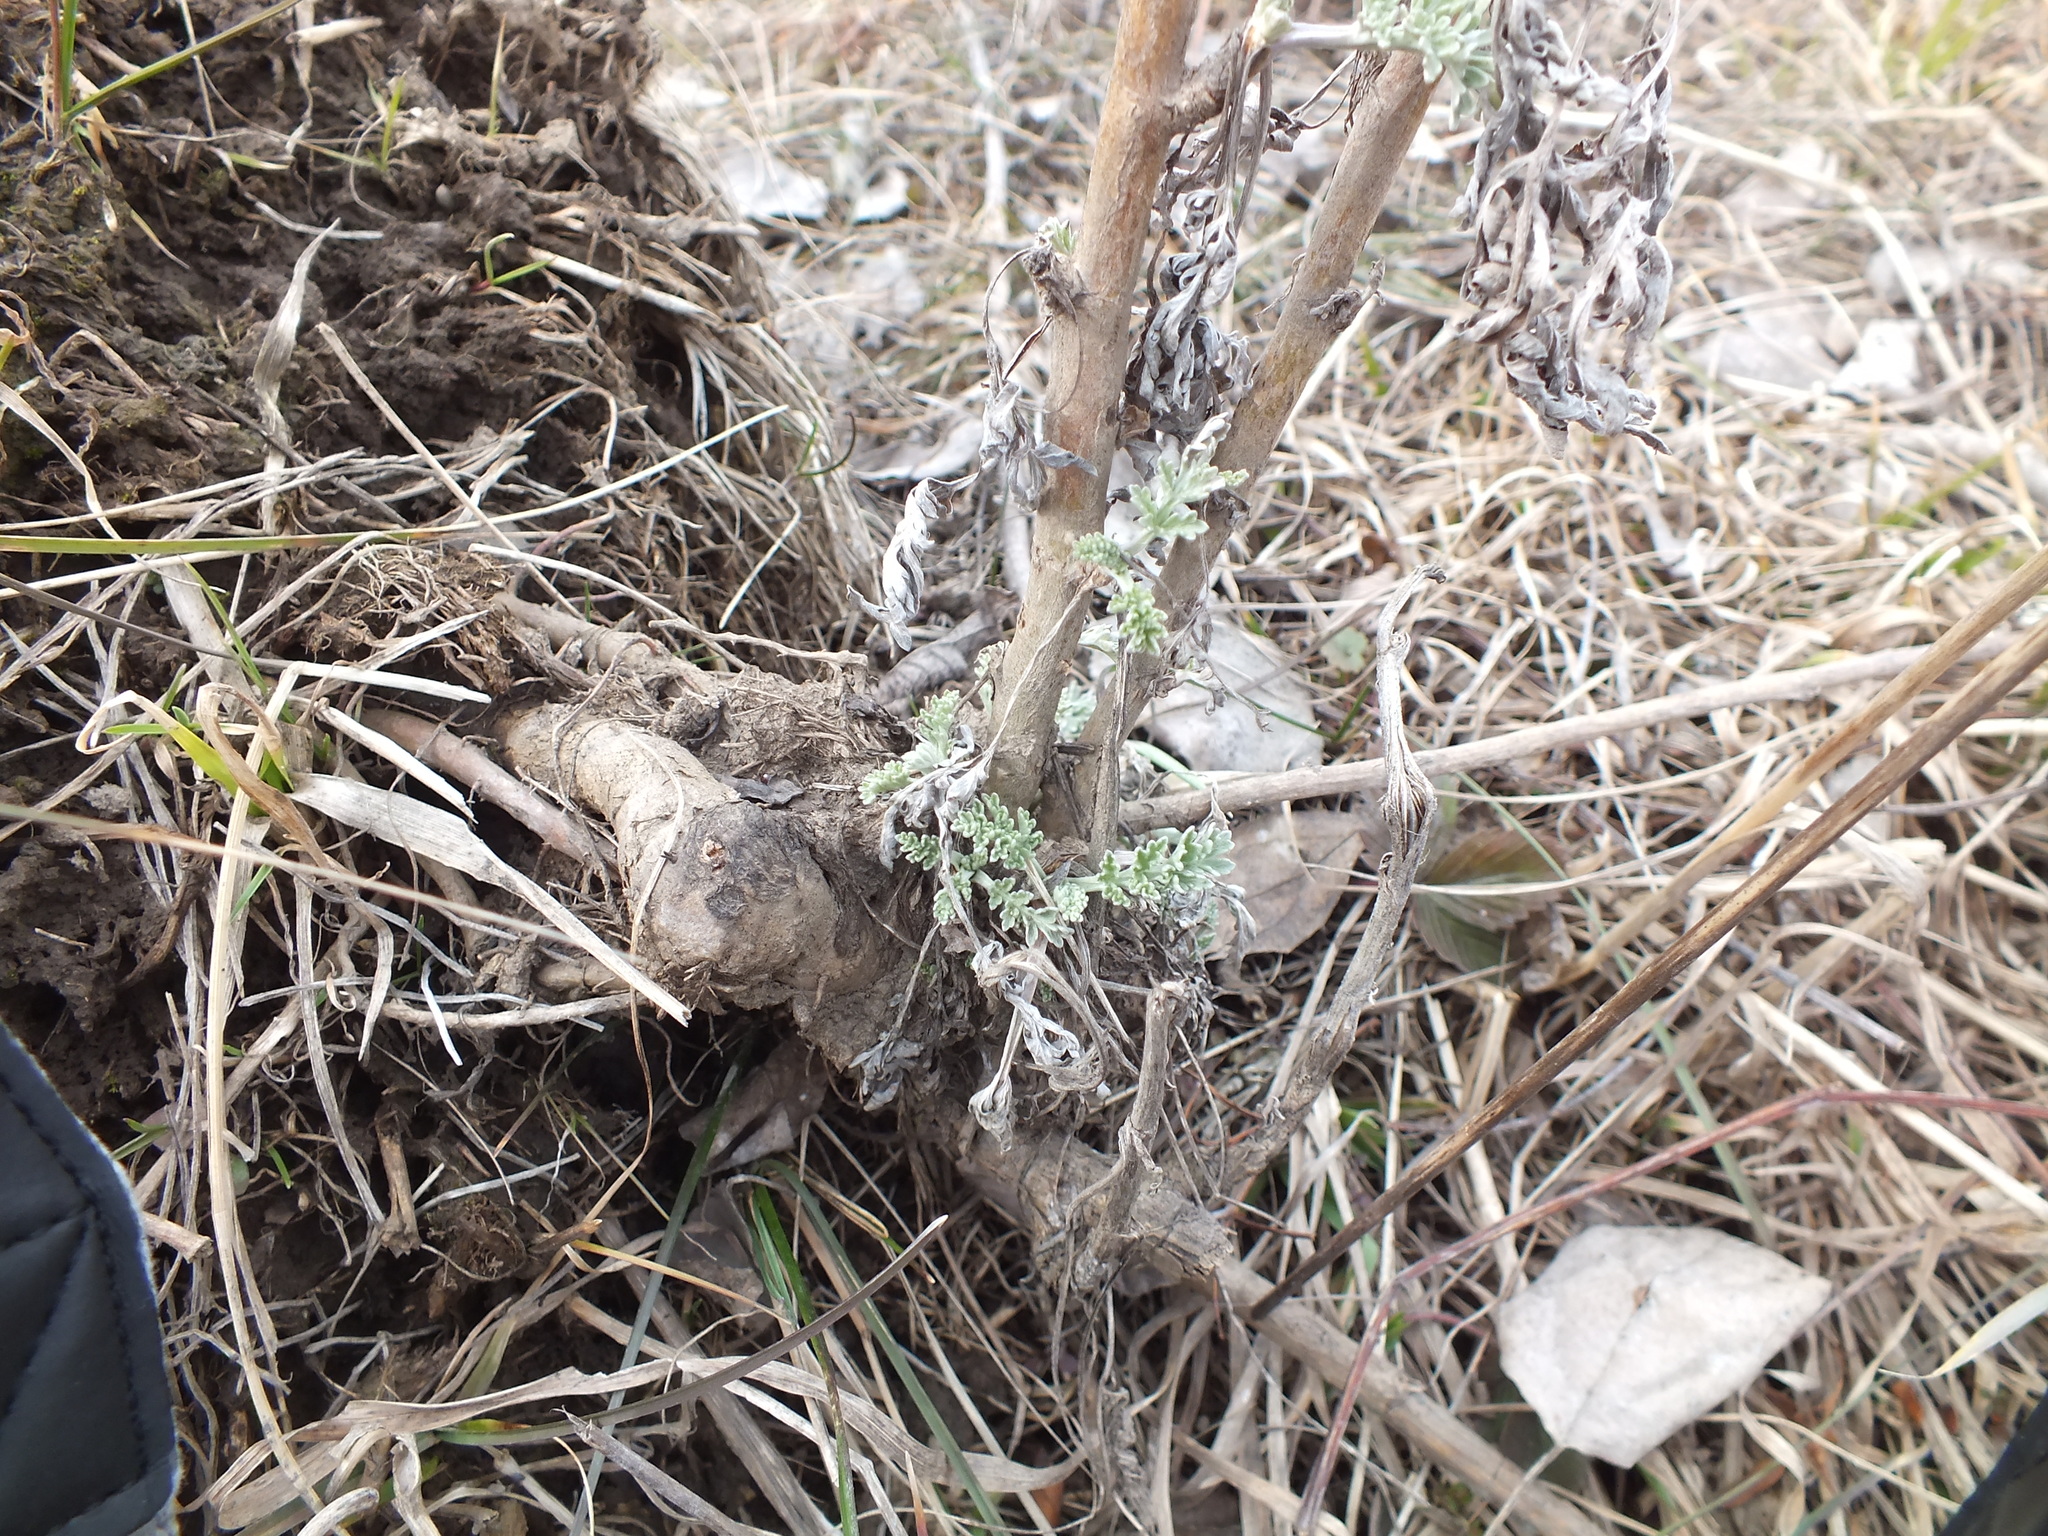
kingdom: Plantae
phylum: Tracheophyta
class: Magnoliopsida
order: Asterales
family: Asteraceae
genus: Artemisia
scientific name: Artemisia absinthium
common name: Wormwood
